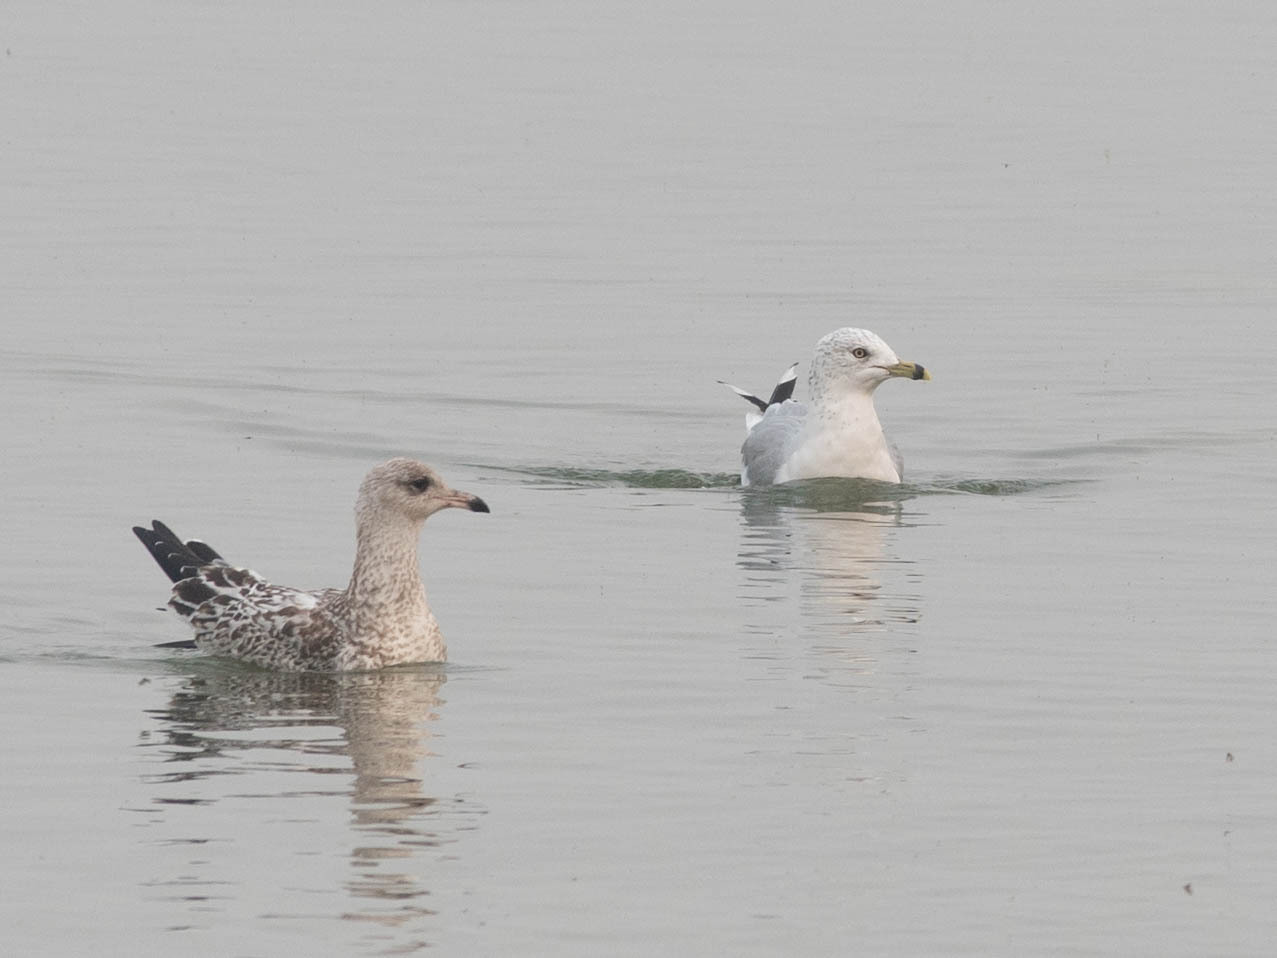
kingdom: Animalia
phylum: Chordata
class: Aves
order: Charadriiformes
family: Laridae
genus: Larus
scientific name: Larus delawarensis
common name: Ring-billed gull
